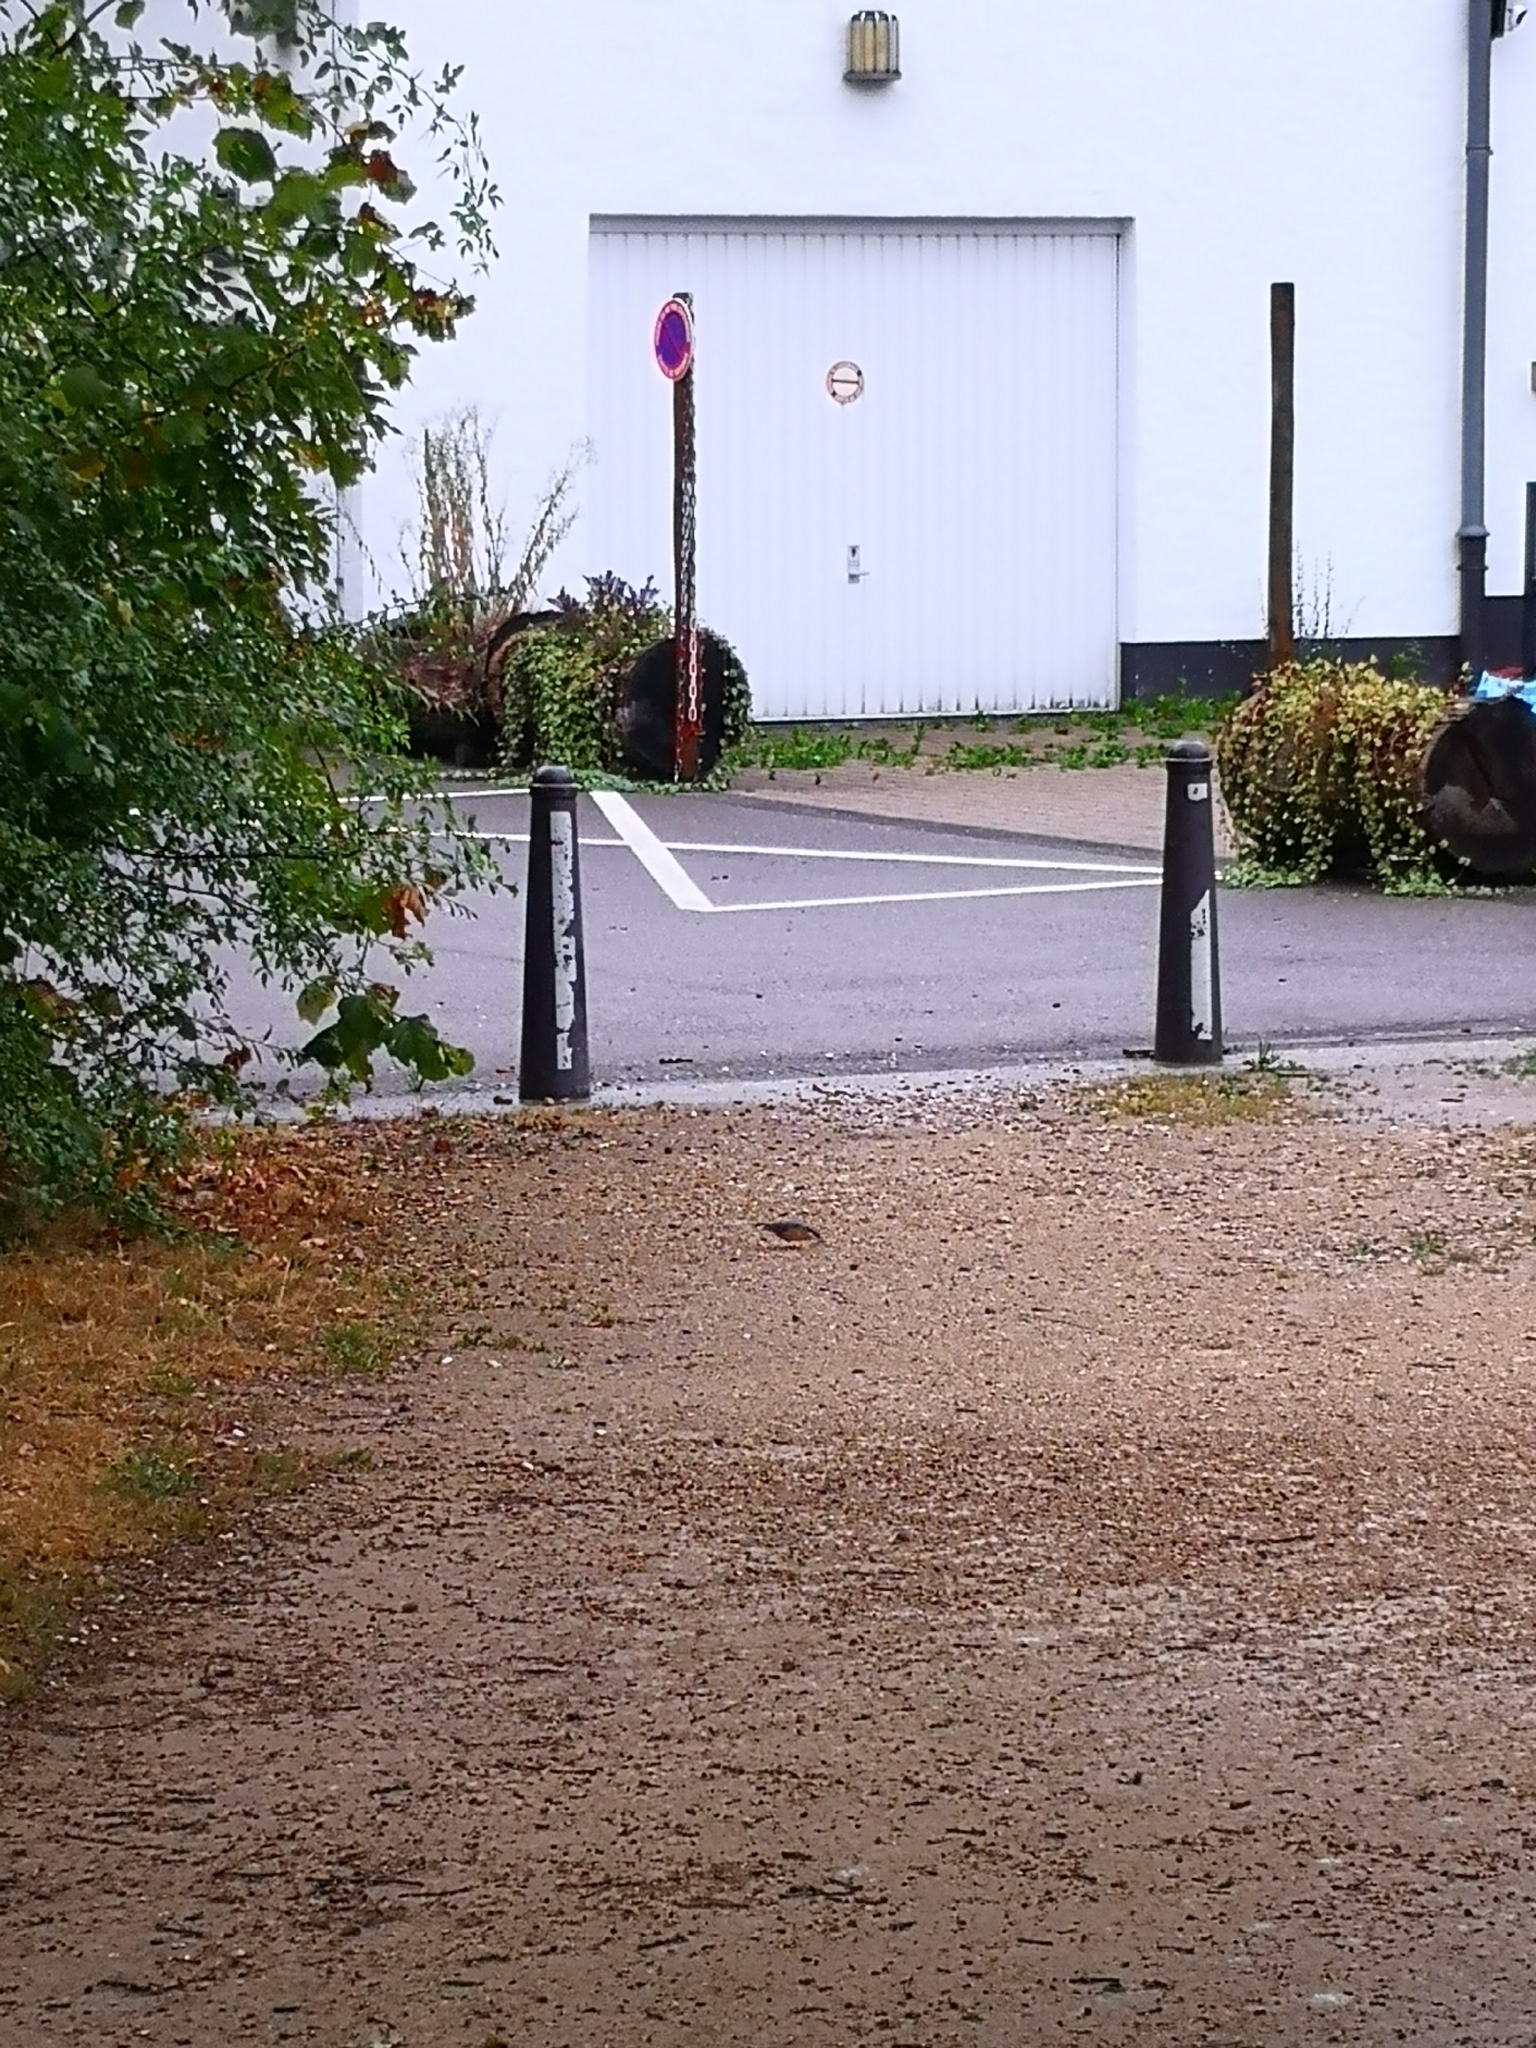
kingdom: Animalia
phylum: Chordata
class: Aves
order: Passeriformes
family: Sittidae
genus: Sitta
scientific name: Sitta europaea
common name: Eurasian nuthatch
